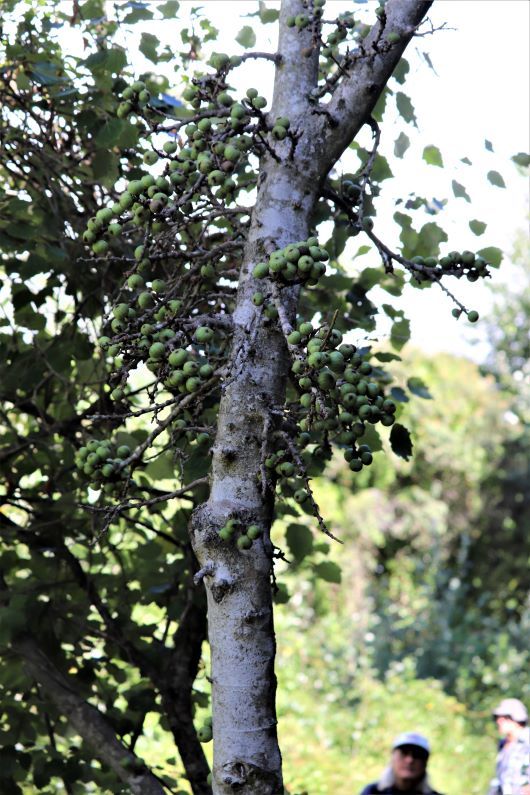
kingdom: Plantae
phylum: Tracheophyta
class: Magnoliopsida
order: Rosales
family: Moraceae
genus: Ficus
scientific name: Ficus sur
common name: Cape fig
